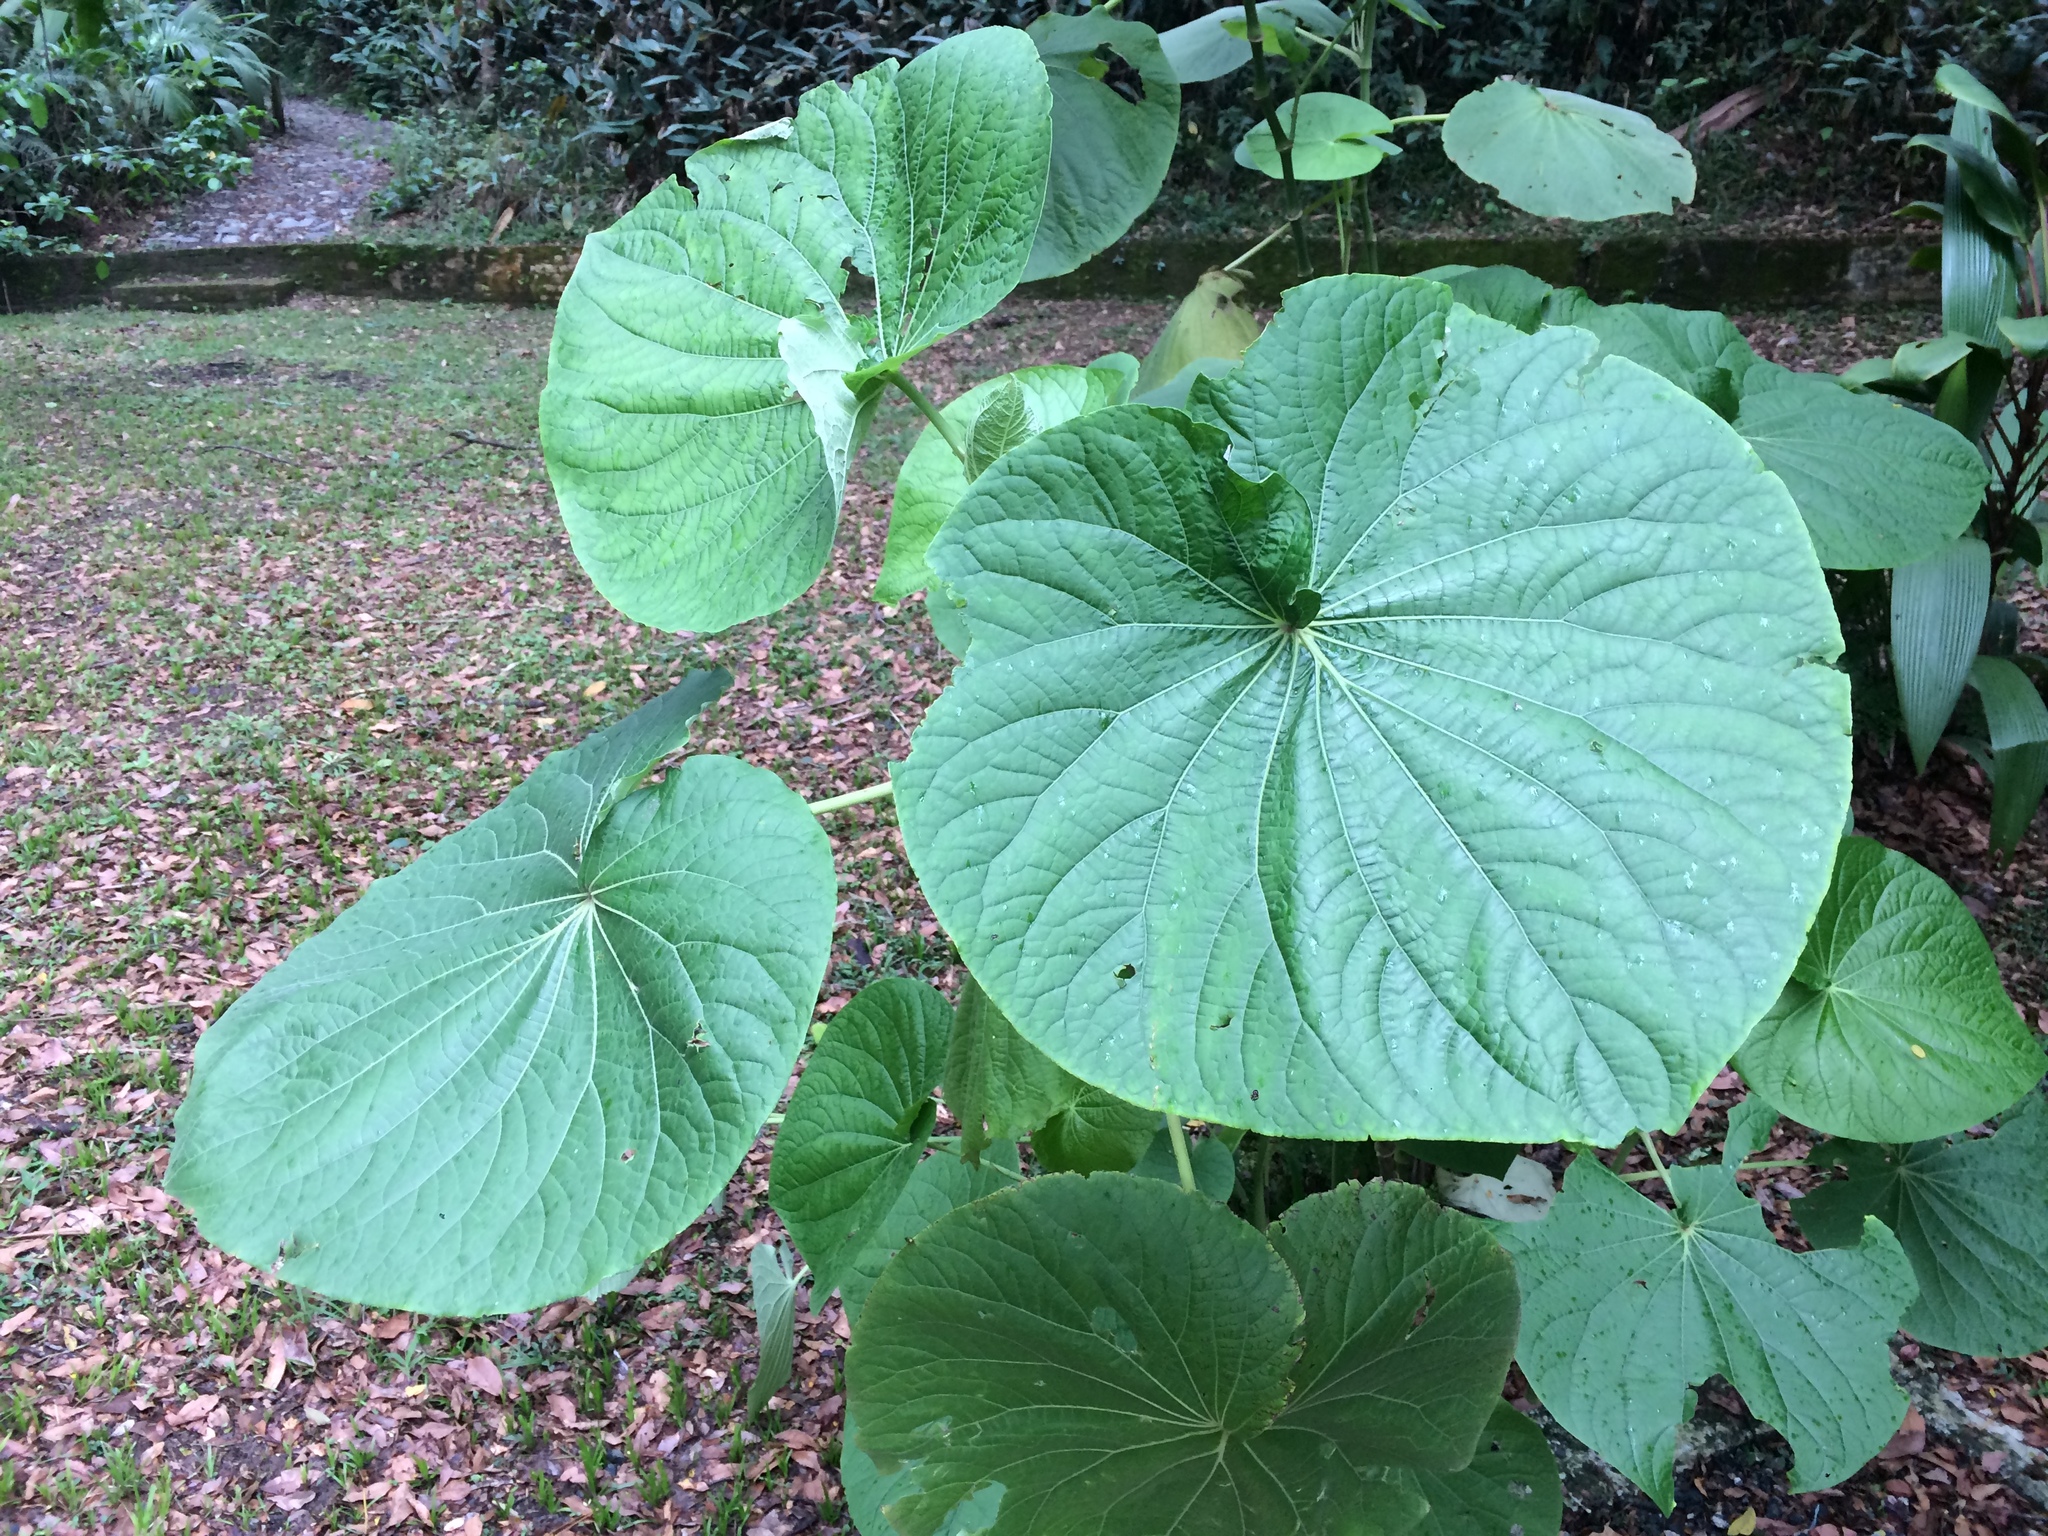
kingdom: Plantae
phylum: Tracheophyta
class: Magnoliopsida
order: Piperales
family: Piperaceae
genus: Piper
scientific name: Piper umbellatum
